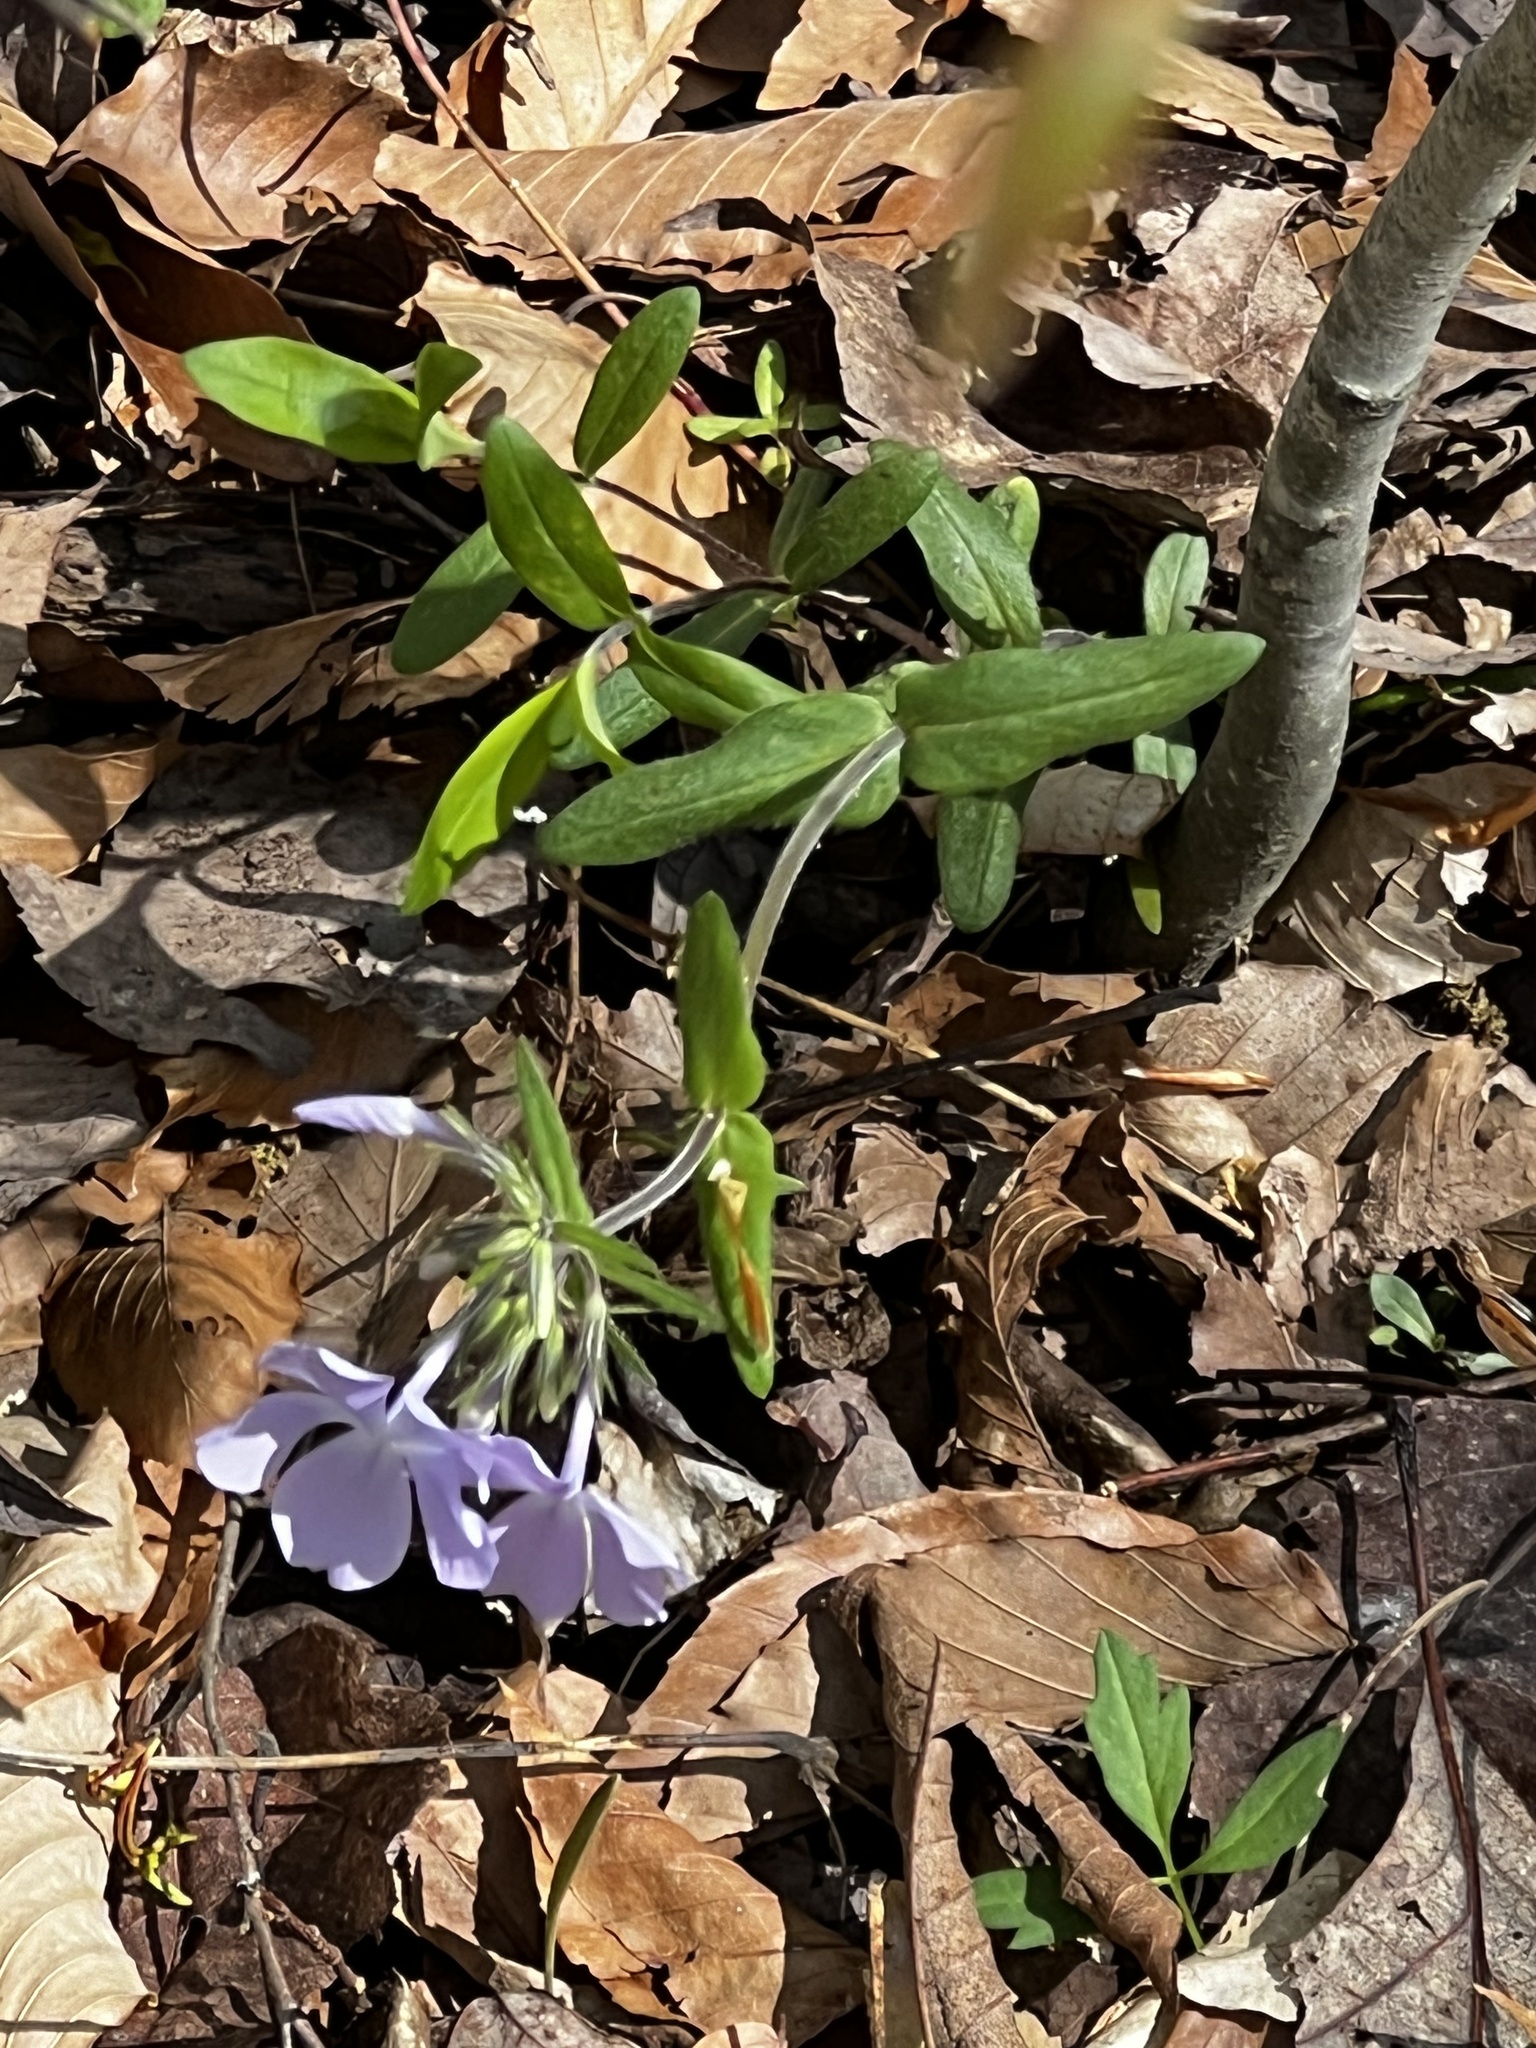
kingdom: Plantae
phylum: Tracheophyta
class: Magnoliopsida
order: Ericales
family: Polemoniaceae
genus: Phlox
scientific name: Phlox divaricata
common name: Blue phlox
